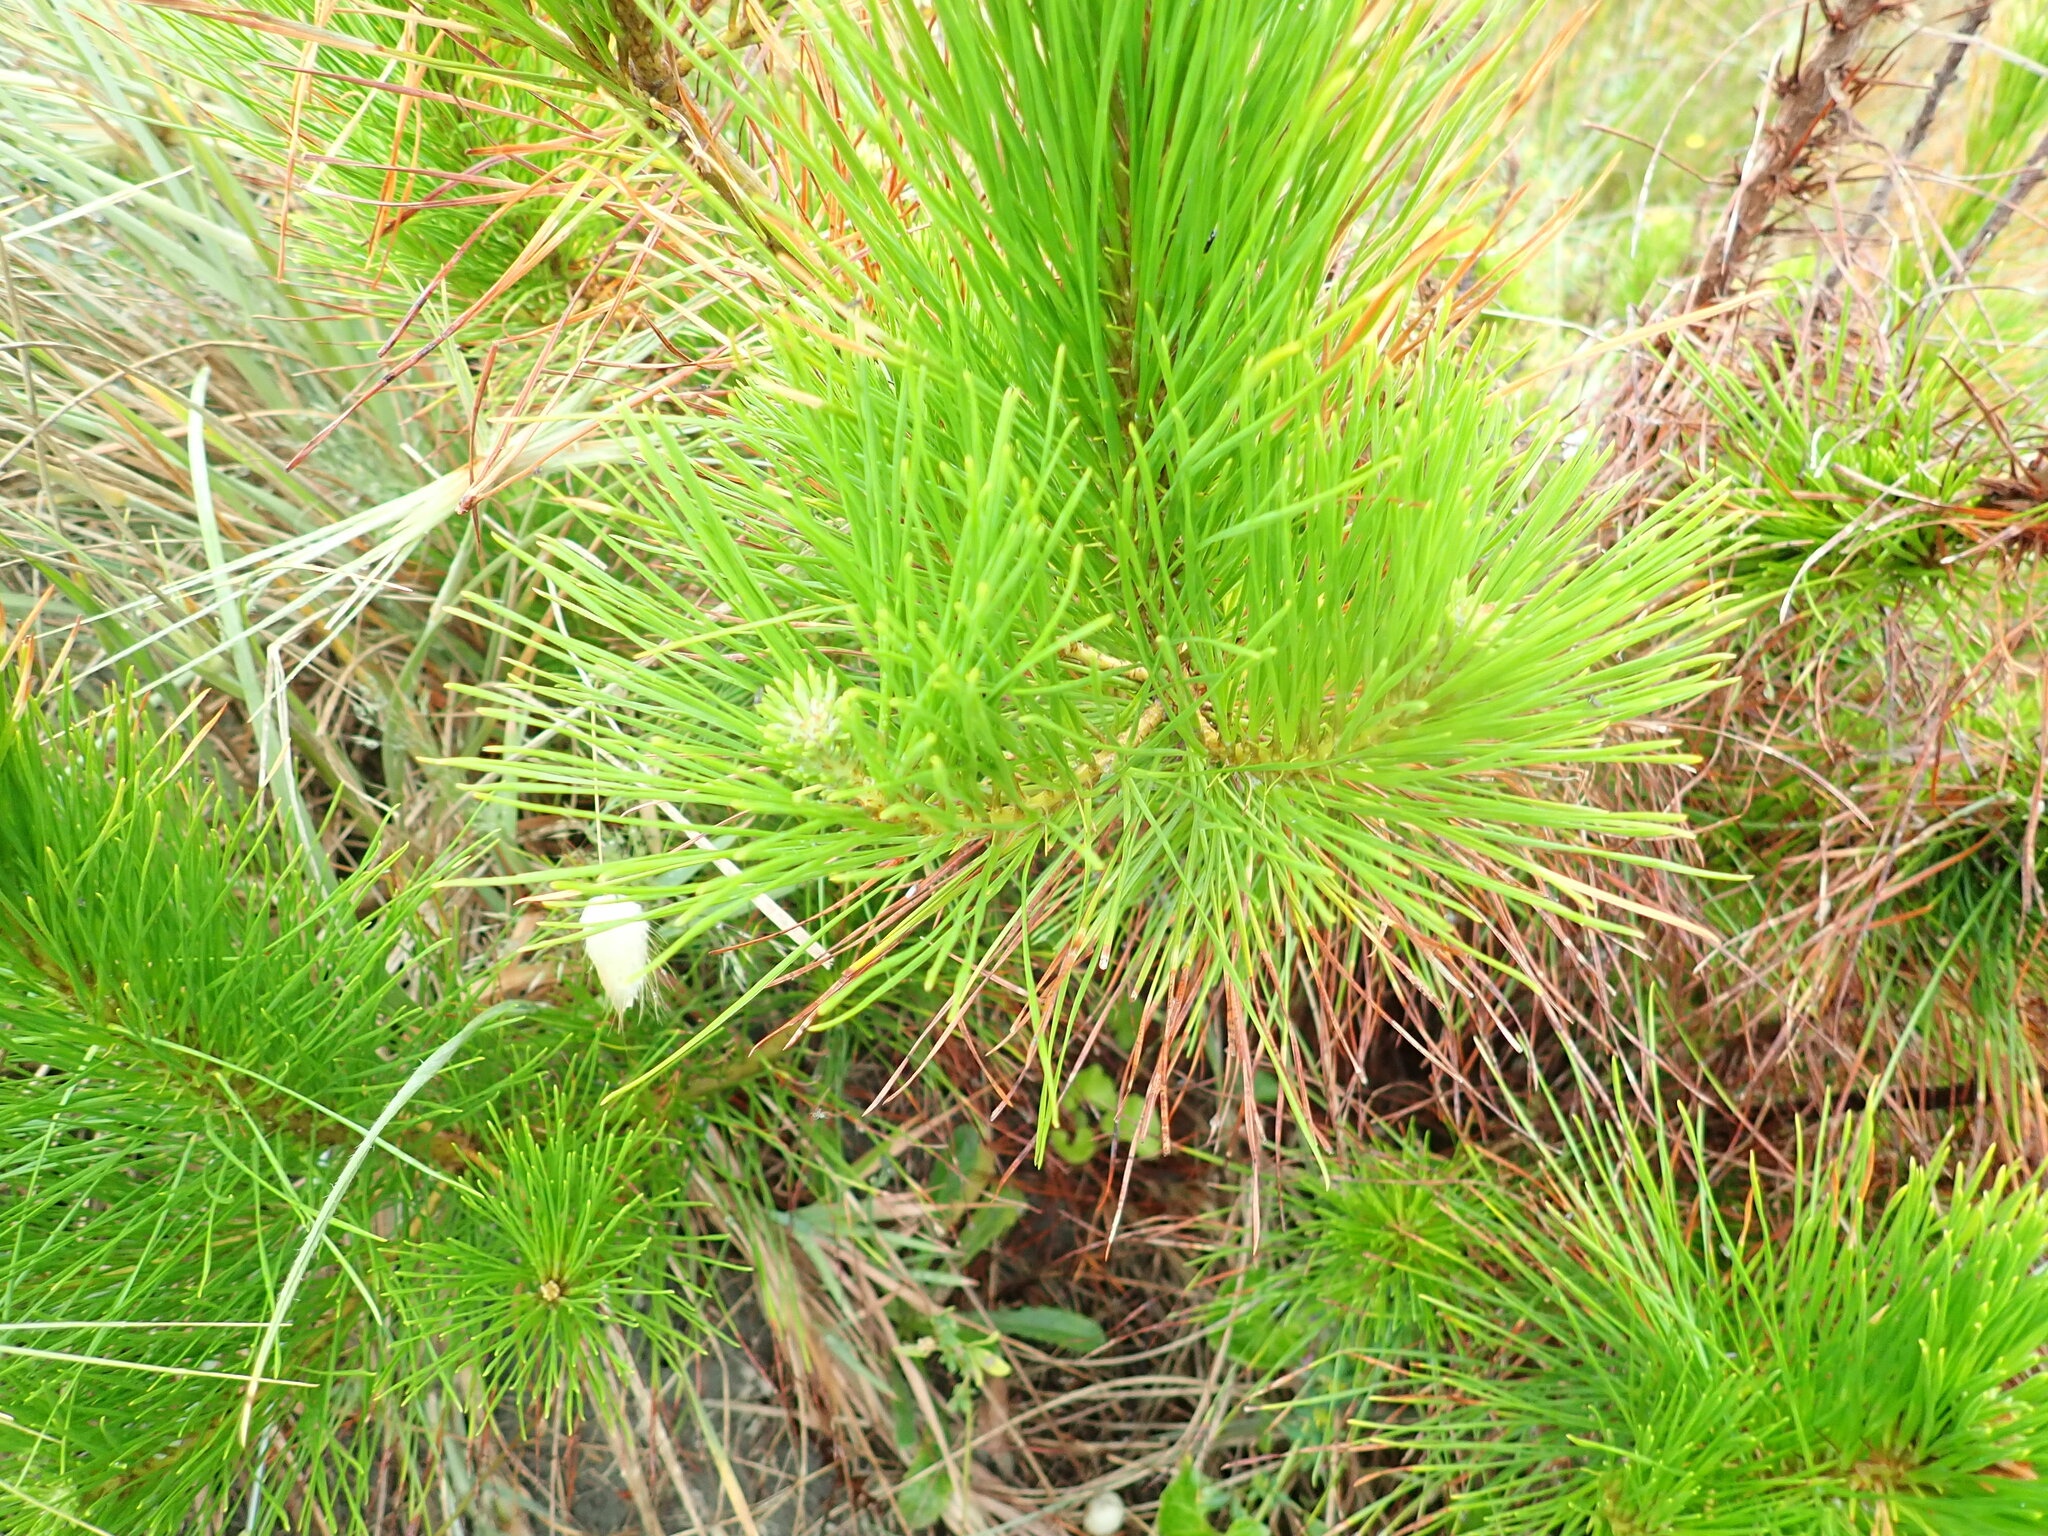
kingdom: Plantae
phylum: Tracheophyta
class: Pinopsida
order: Pinales
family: Pinaceae
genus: Pinus
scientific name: Pinus radiata
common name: Monterey pine
